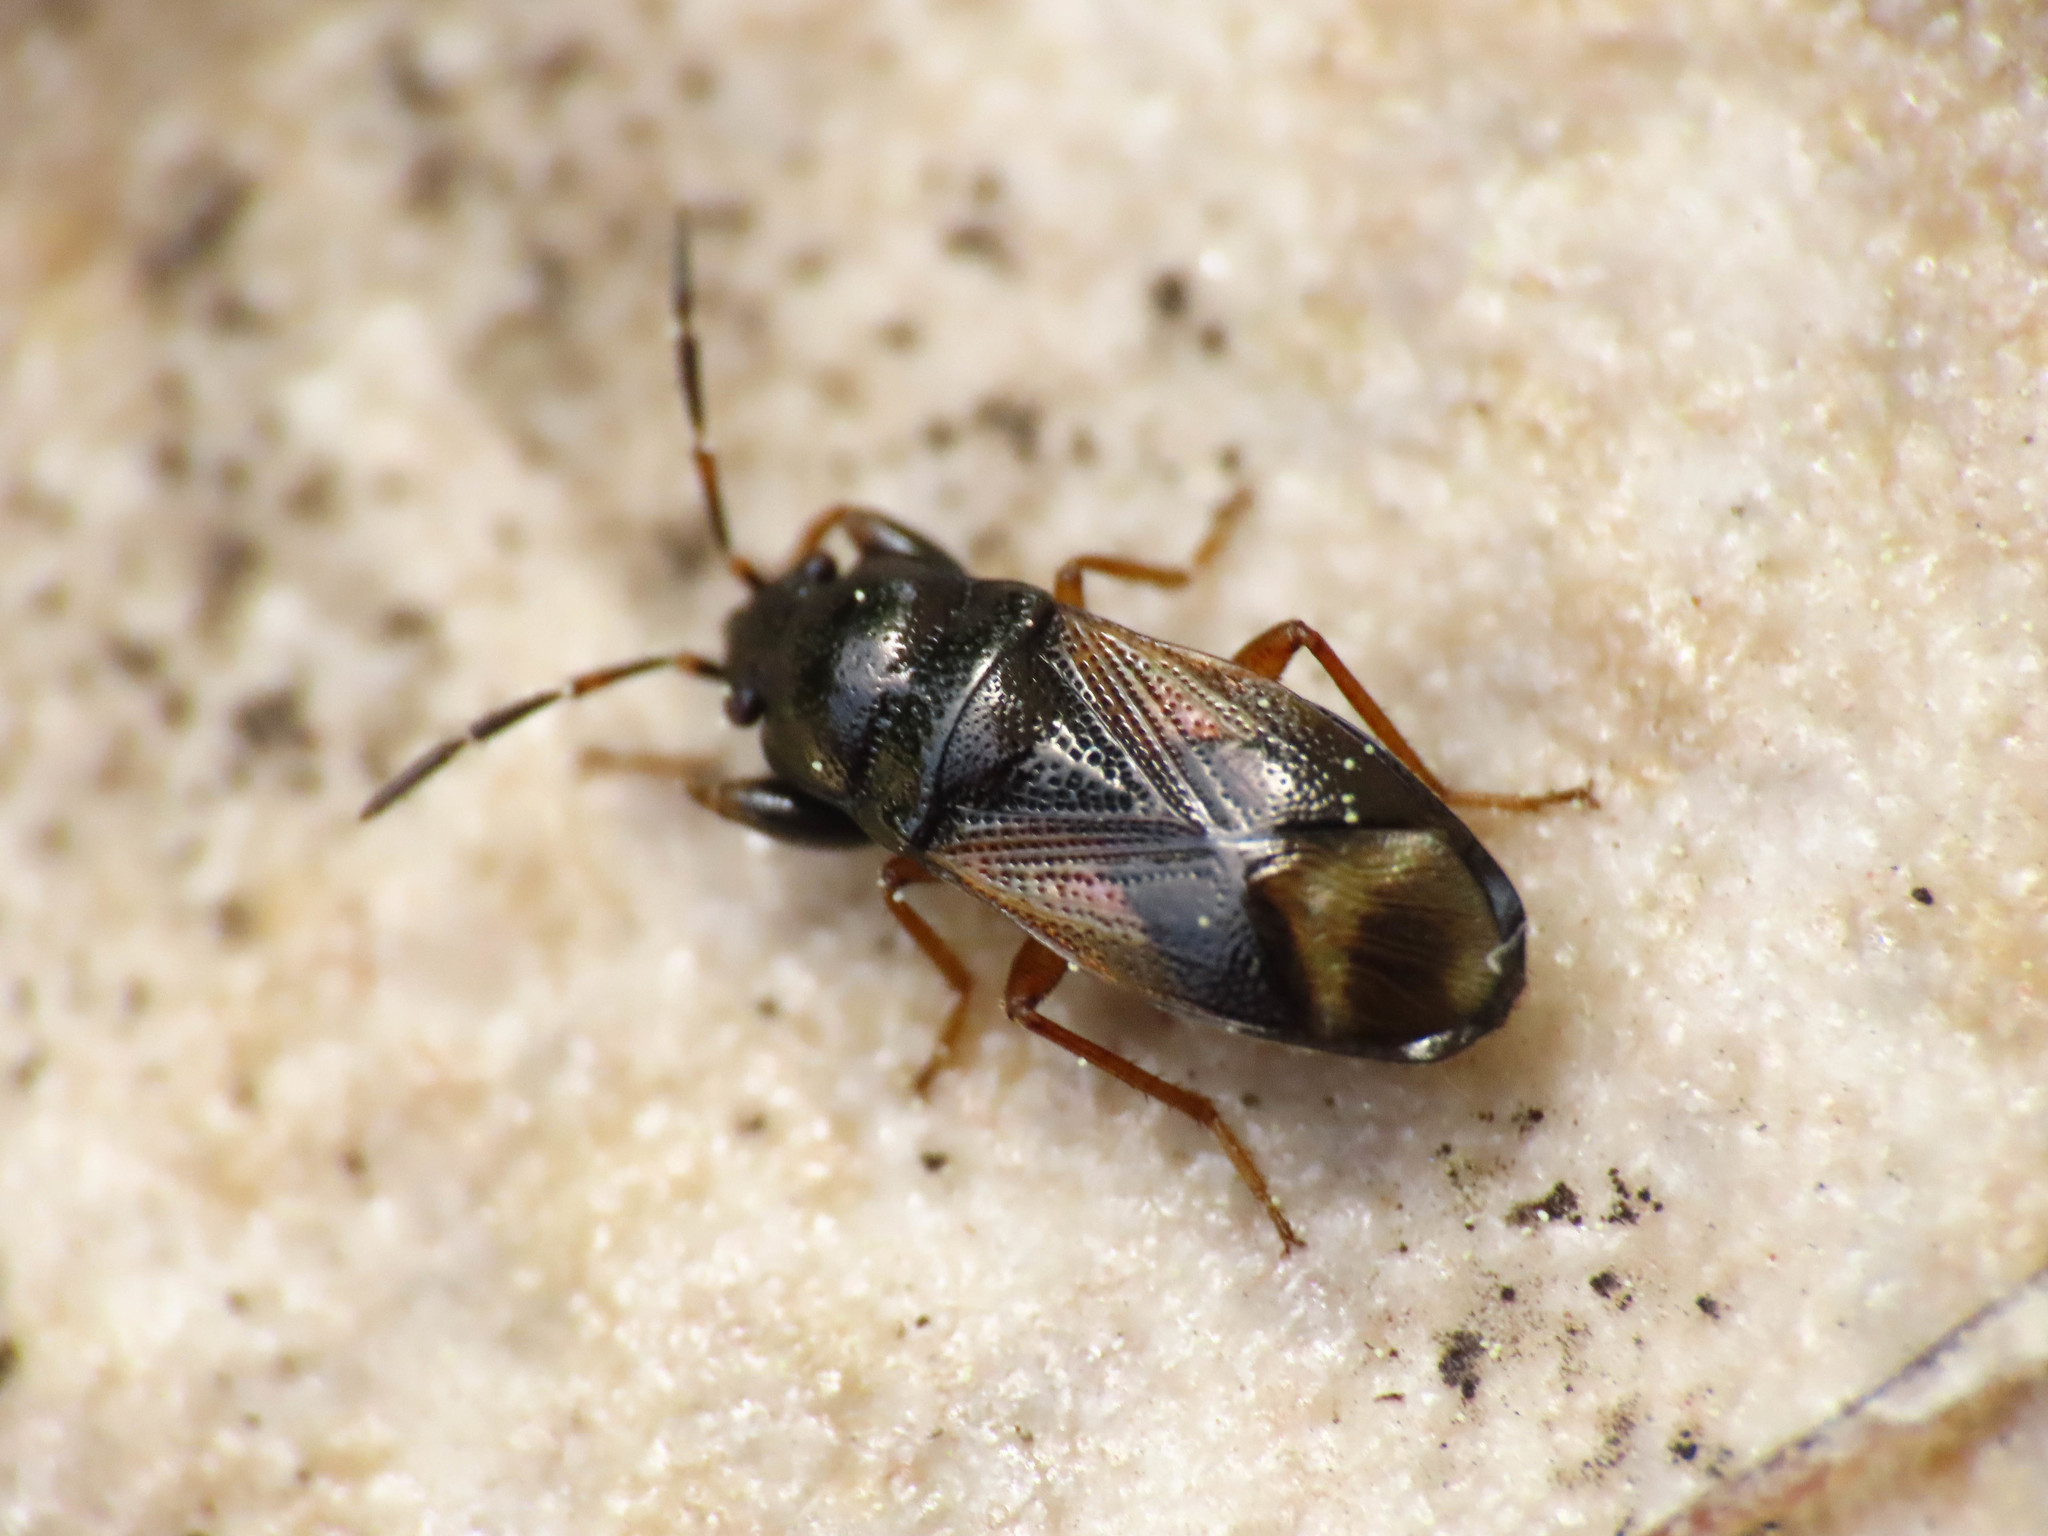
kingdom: Animalia
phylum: Arthropoda
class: Insecta
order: Hemiptera
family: Rhyparochromidae
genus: Megalonotus
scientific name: Megalonotus praetextatus
